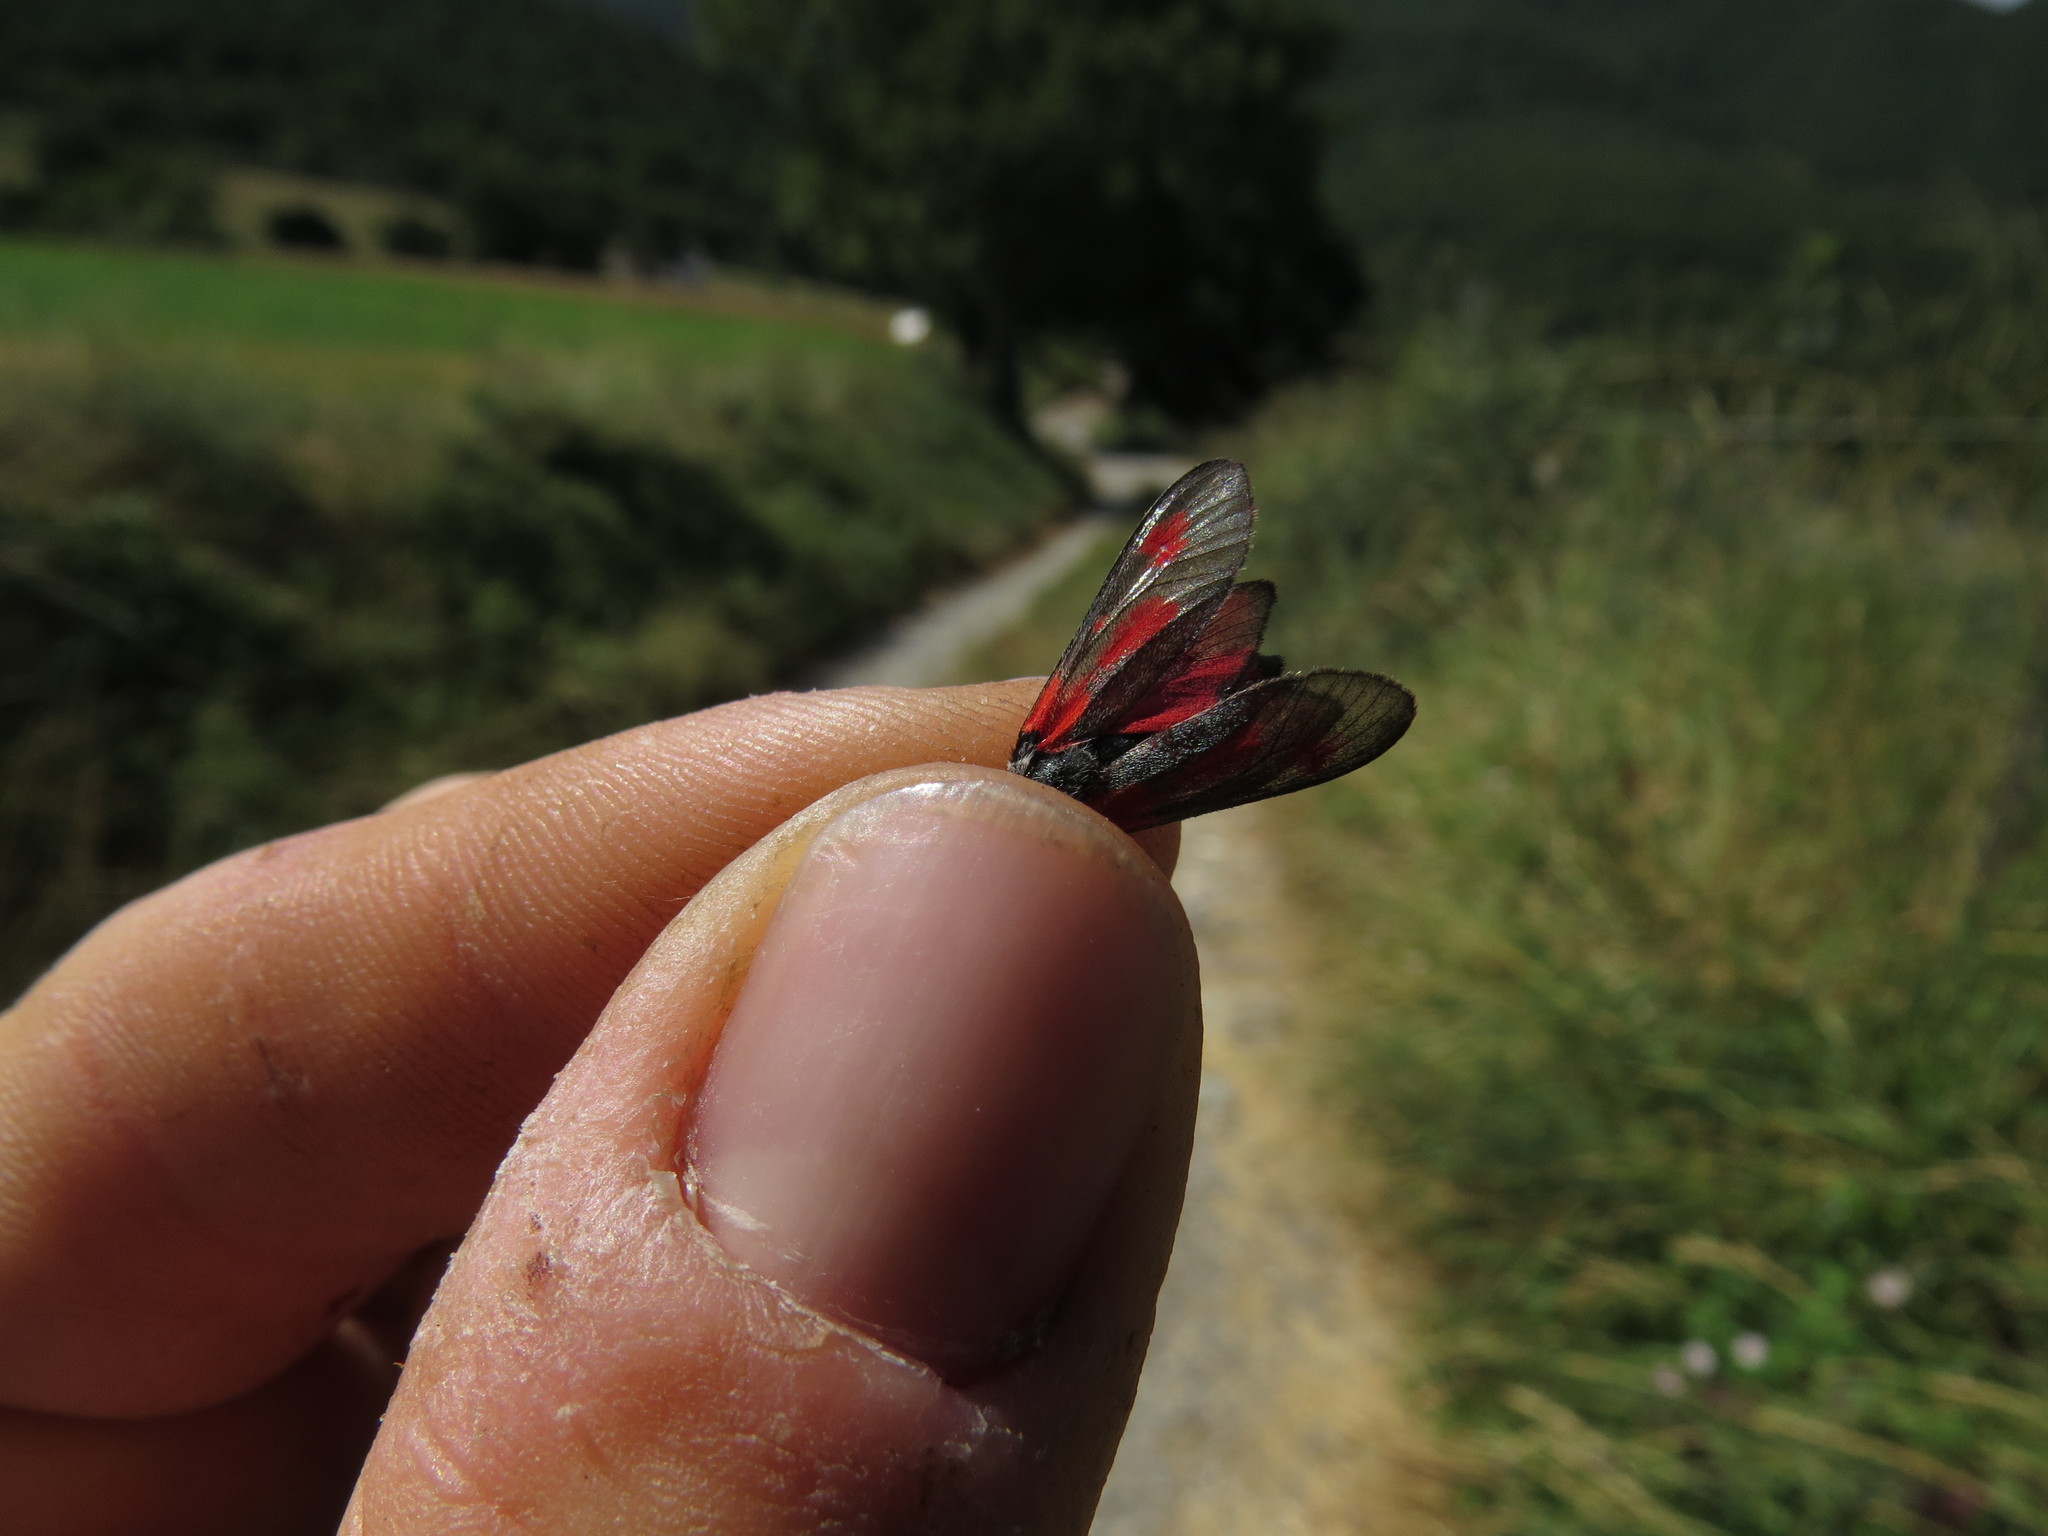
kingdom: Animalia
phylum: Arthropoda
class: Insecta
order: Lepidoptera
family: Zygaenidae
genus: Zygaena
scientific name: Zygaena sarpedon
